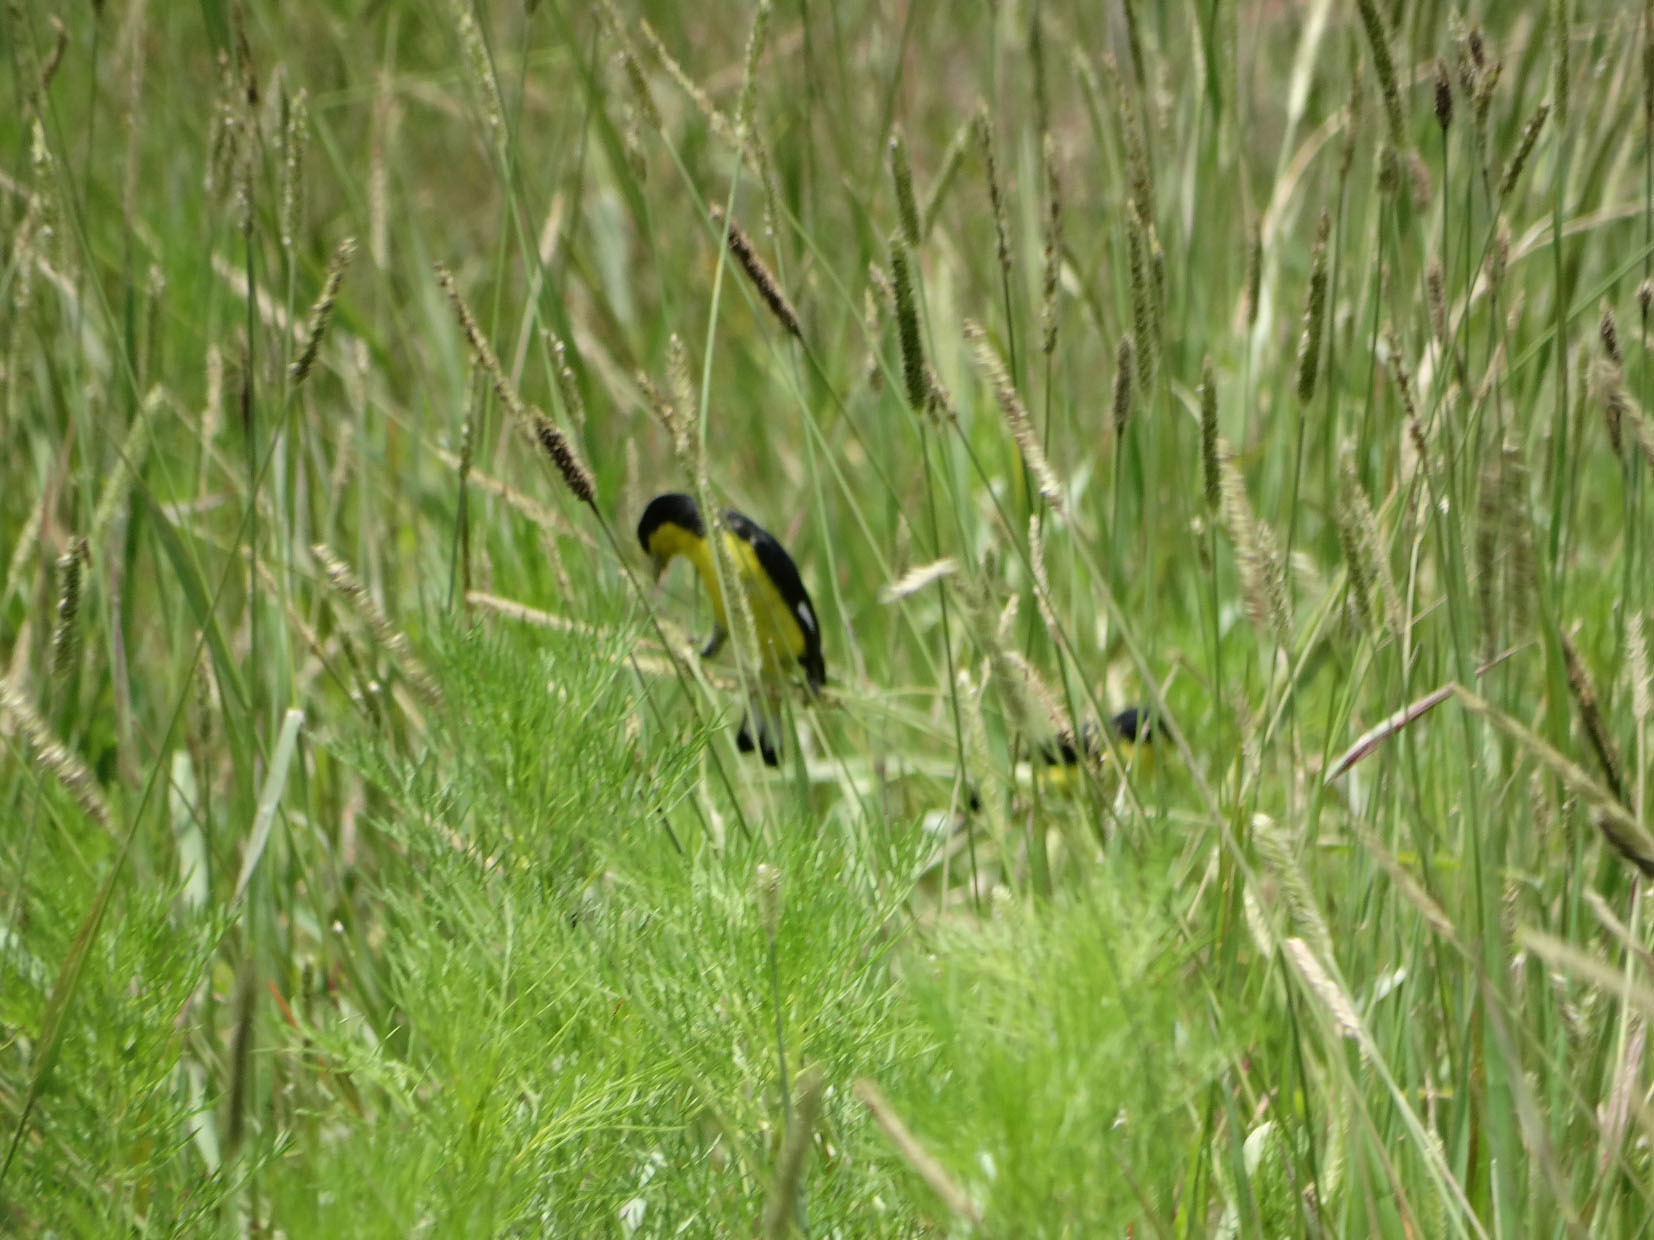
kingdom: Animalia
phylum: Chordata
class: Aves
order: Passeriformes
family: Fringillidae
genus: Spinus
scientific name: Spinus psaltria
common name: Lesser goldfinch
